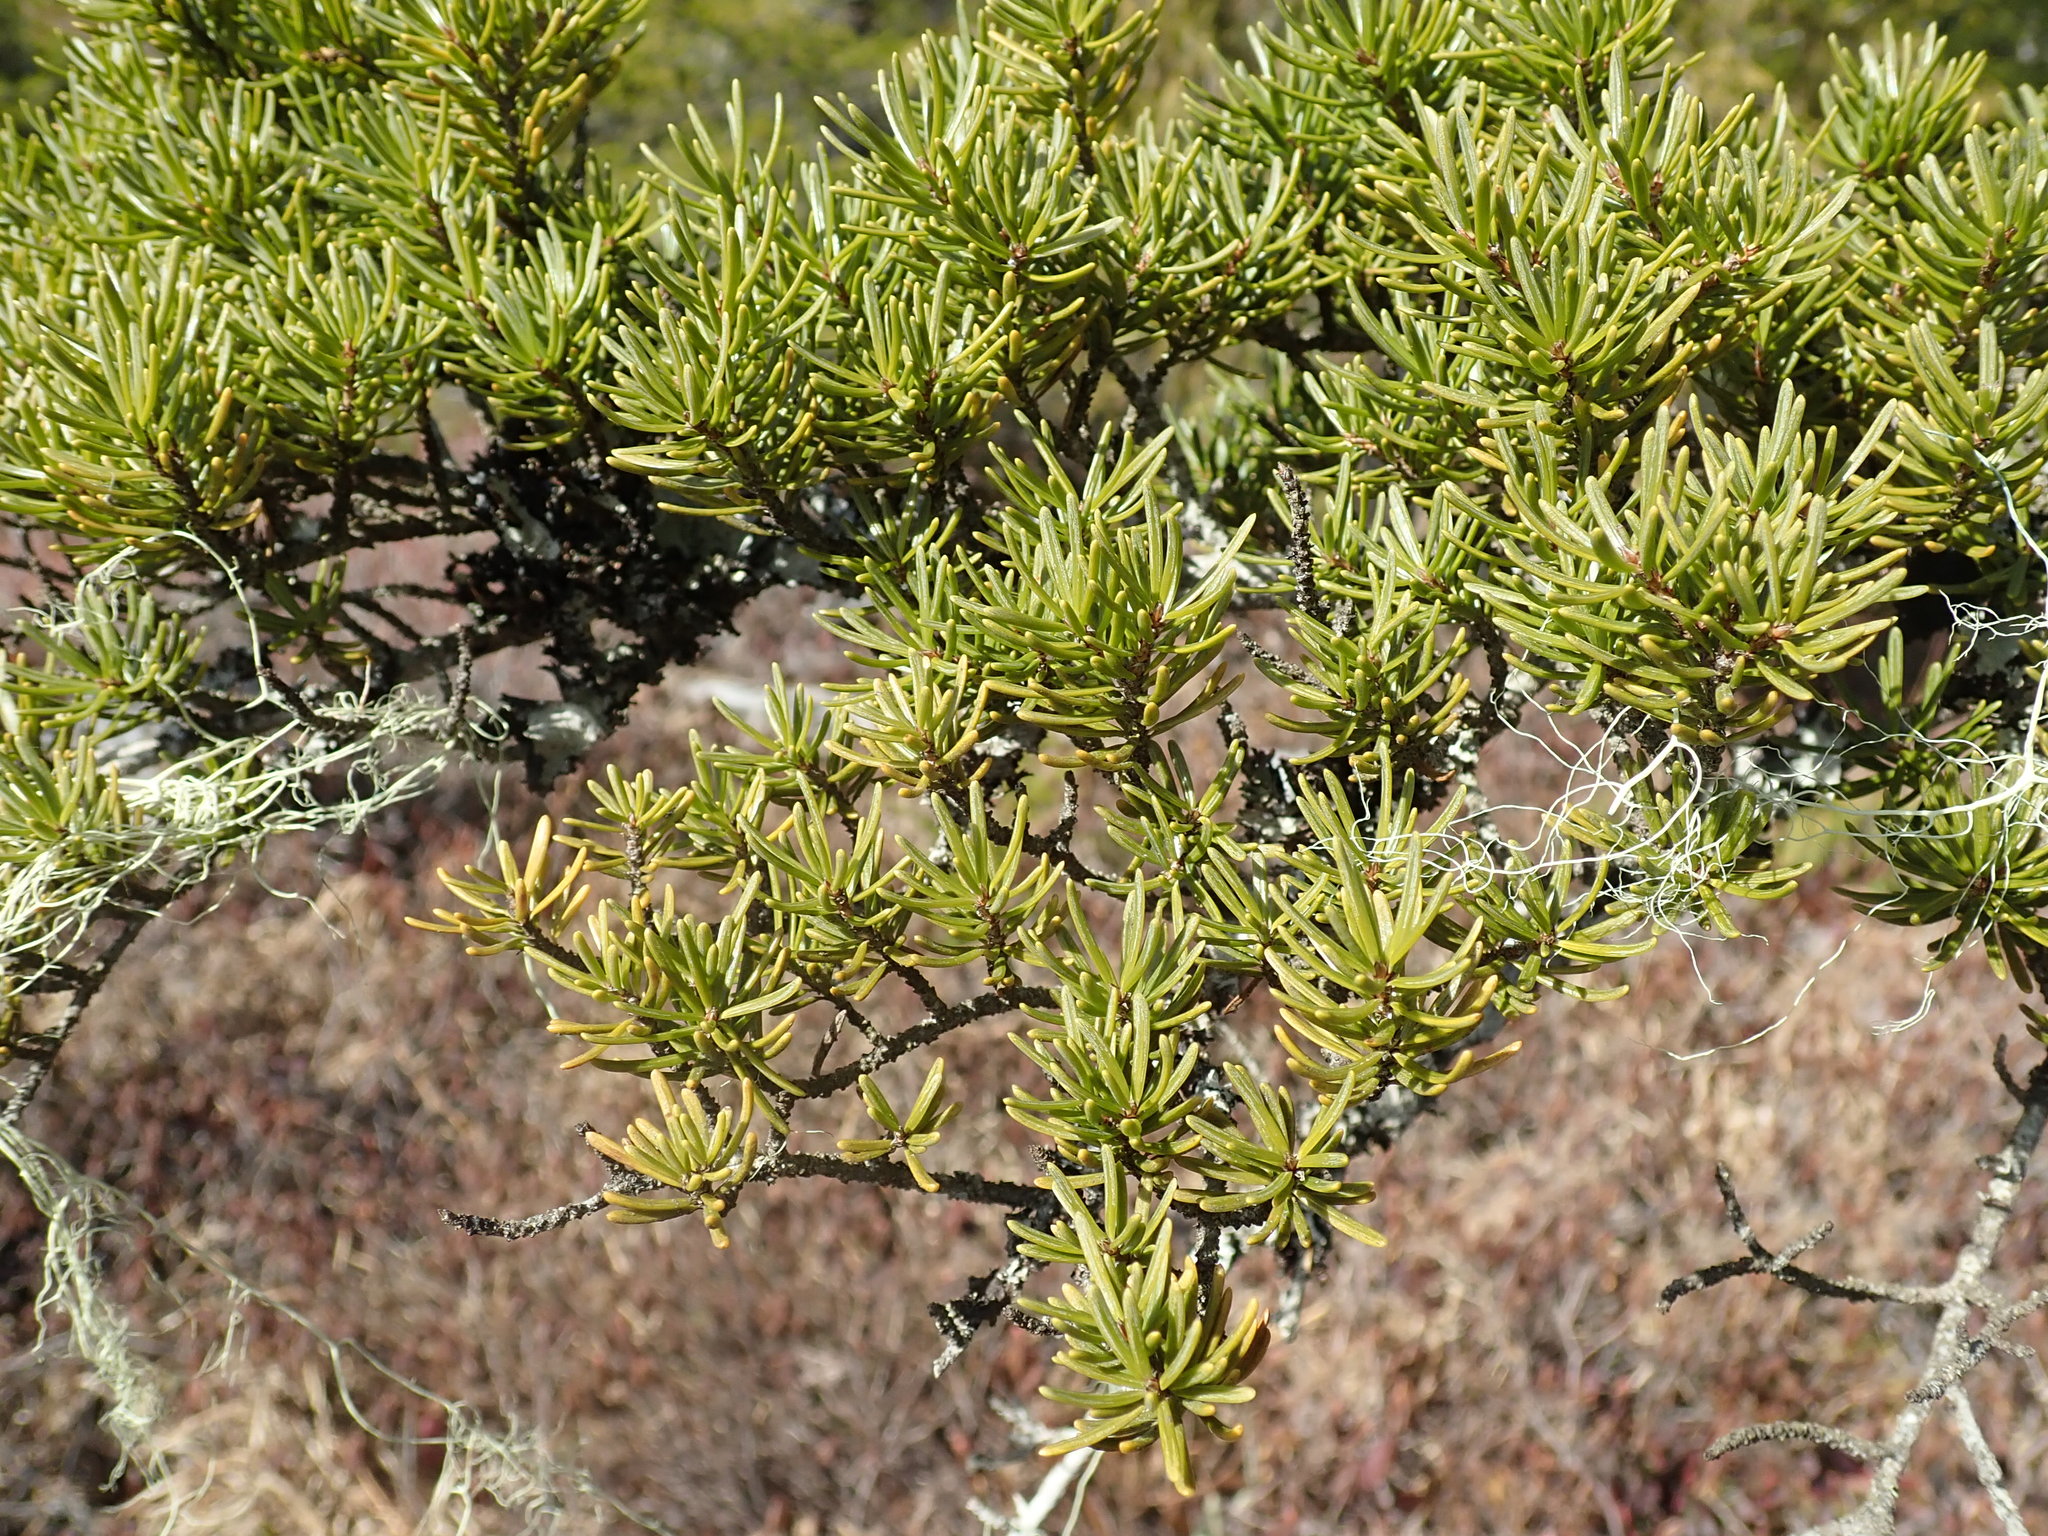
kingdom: Plantae
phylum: Tracheophyta
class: Pinopsida
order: Pinales
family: Pinaceae
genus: Tsuga
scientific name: Tsuga mertensiana
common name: Mountain hemlock
